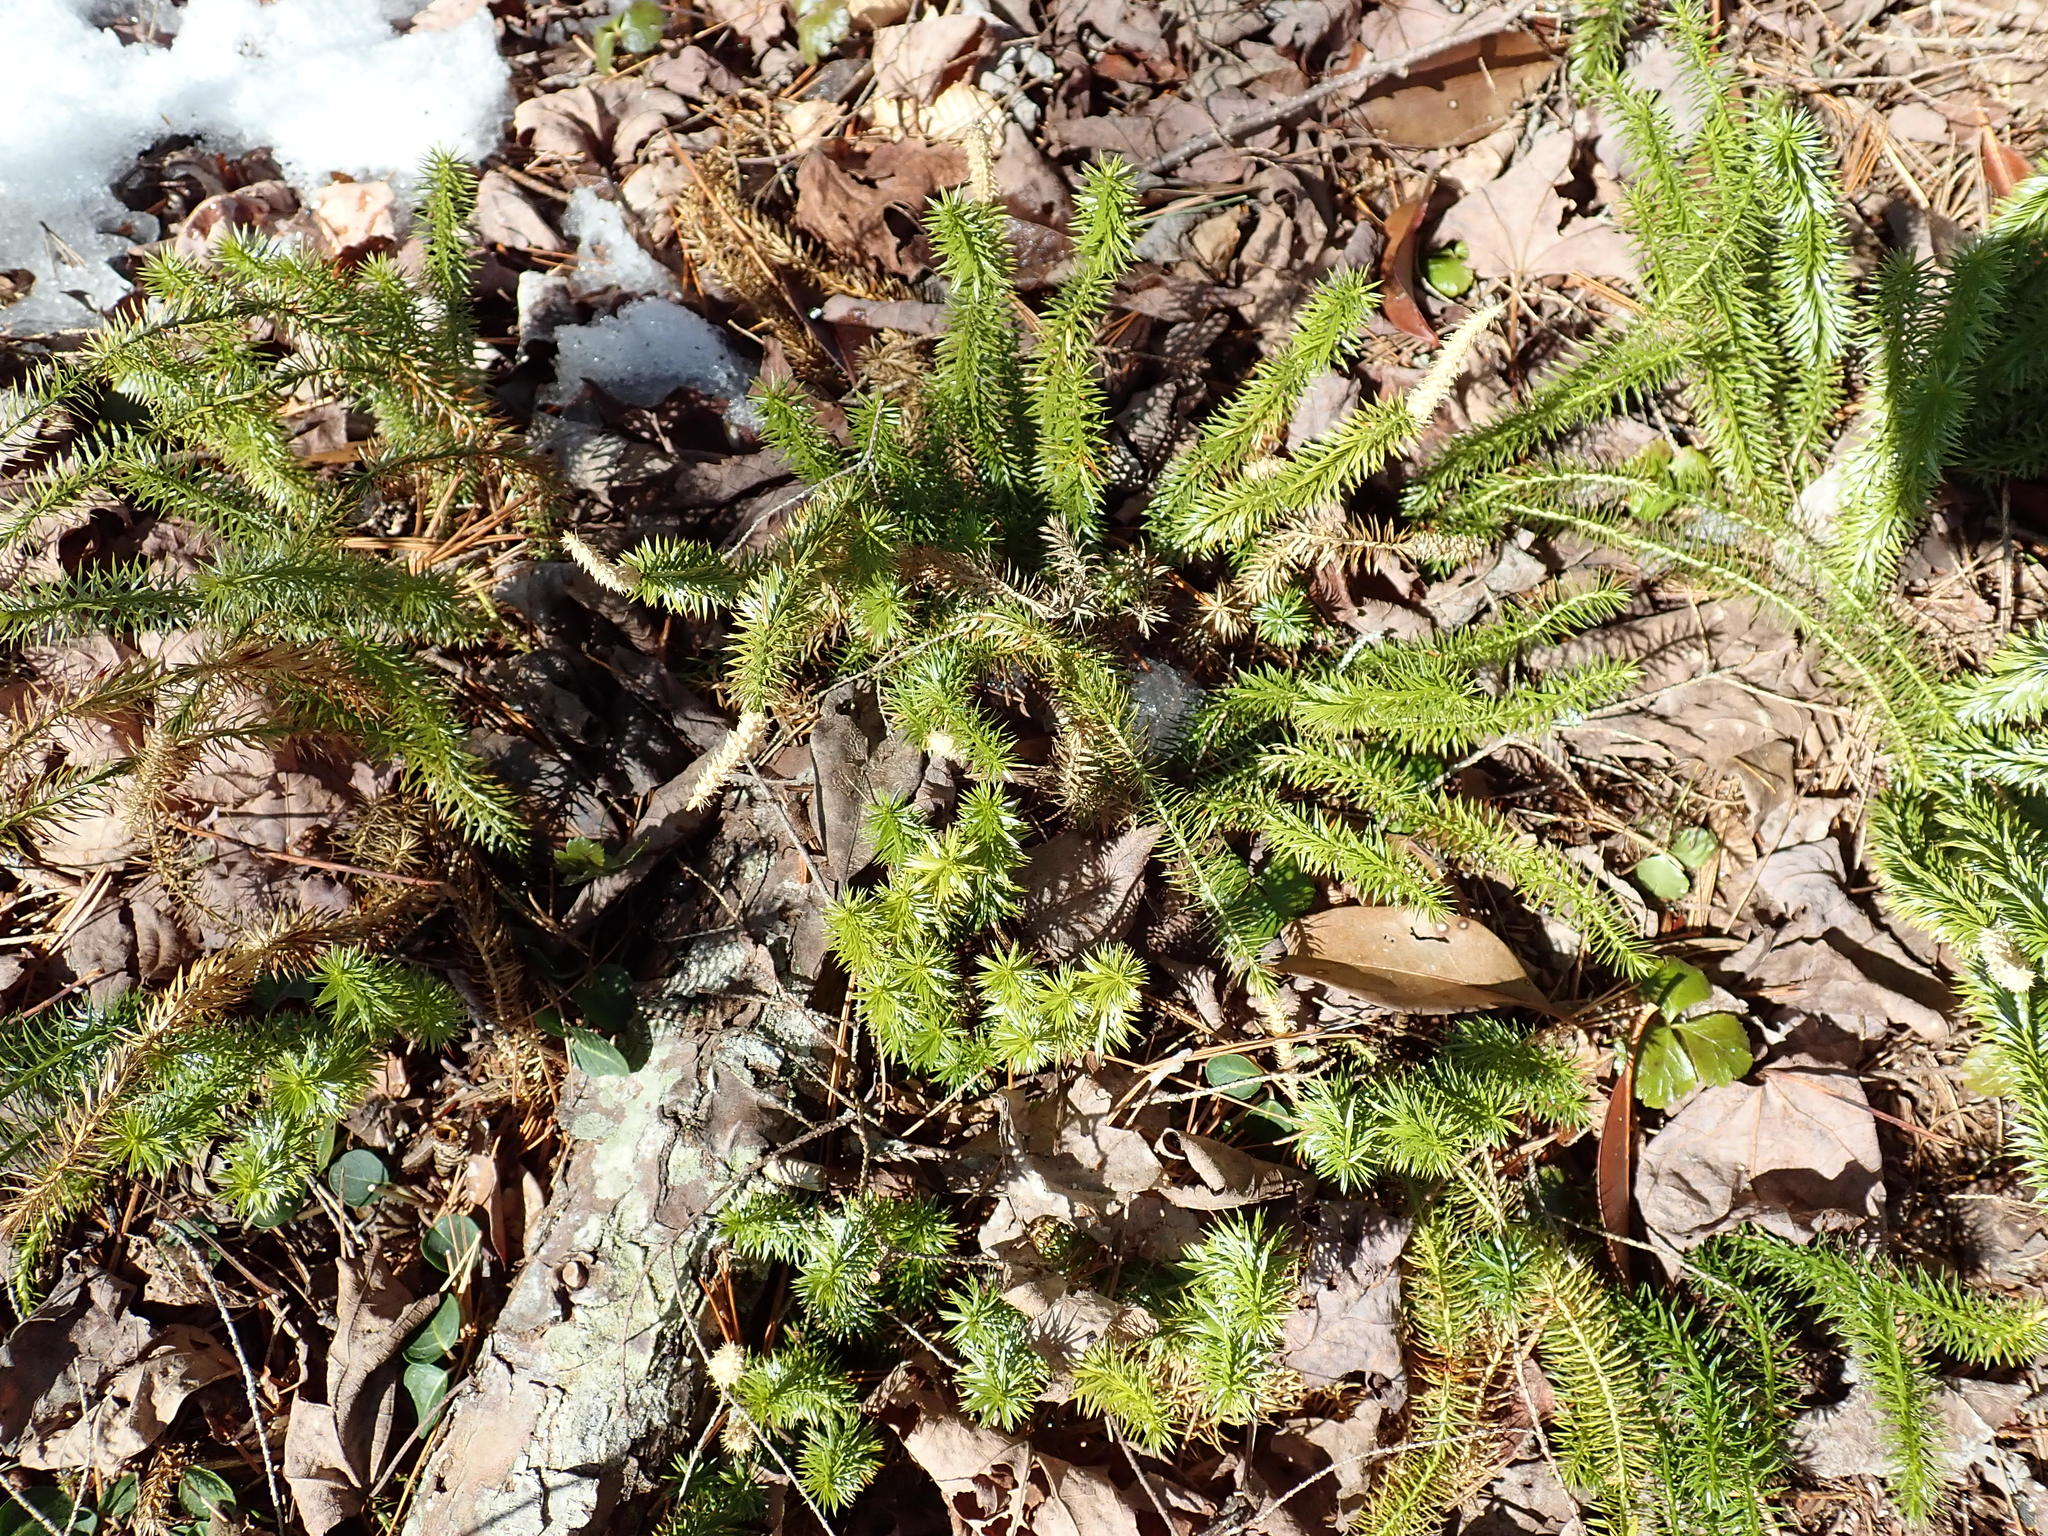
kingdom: Plantae
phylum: Tracheophyta
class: Lycopodiopsida
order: Lycopodiales
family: Lycopodiaceae
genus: Spinulum
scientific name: Spinulum annotinum
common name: Interrupted club-moss
